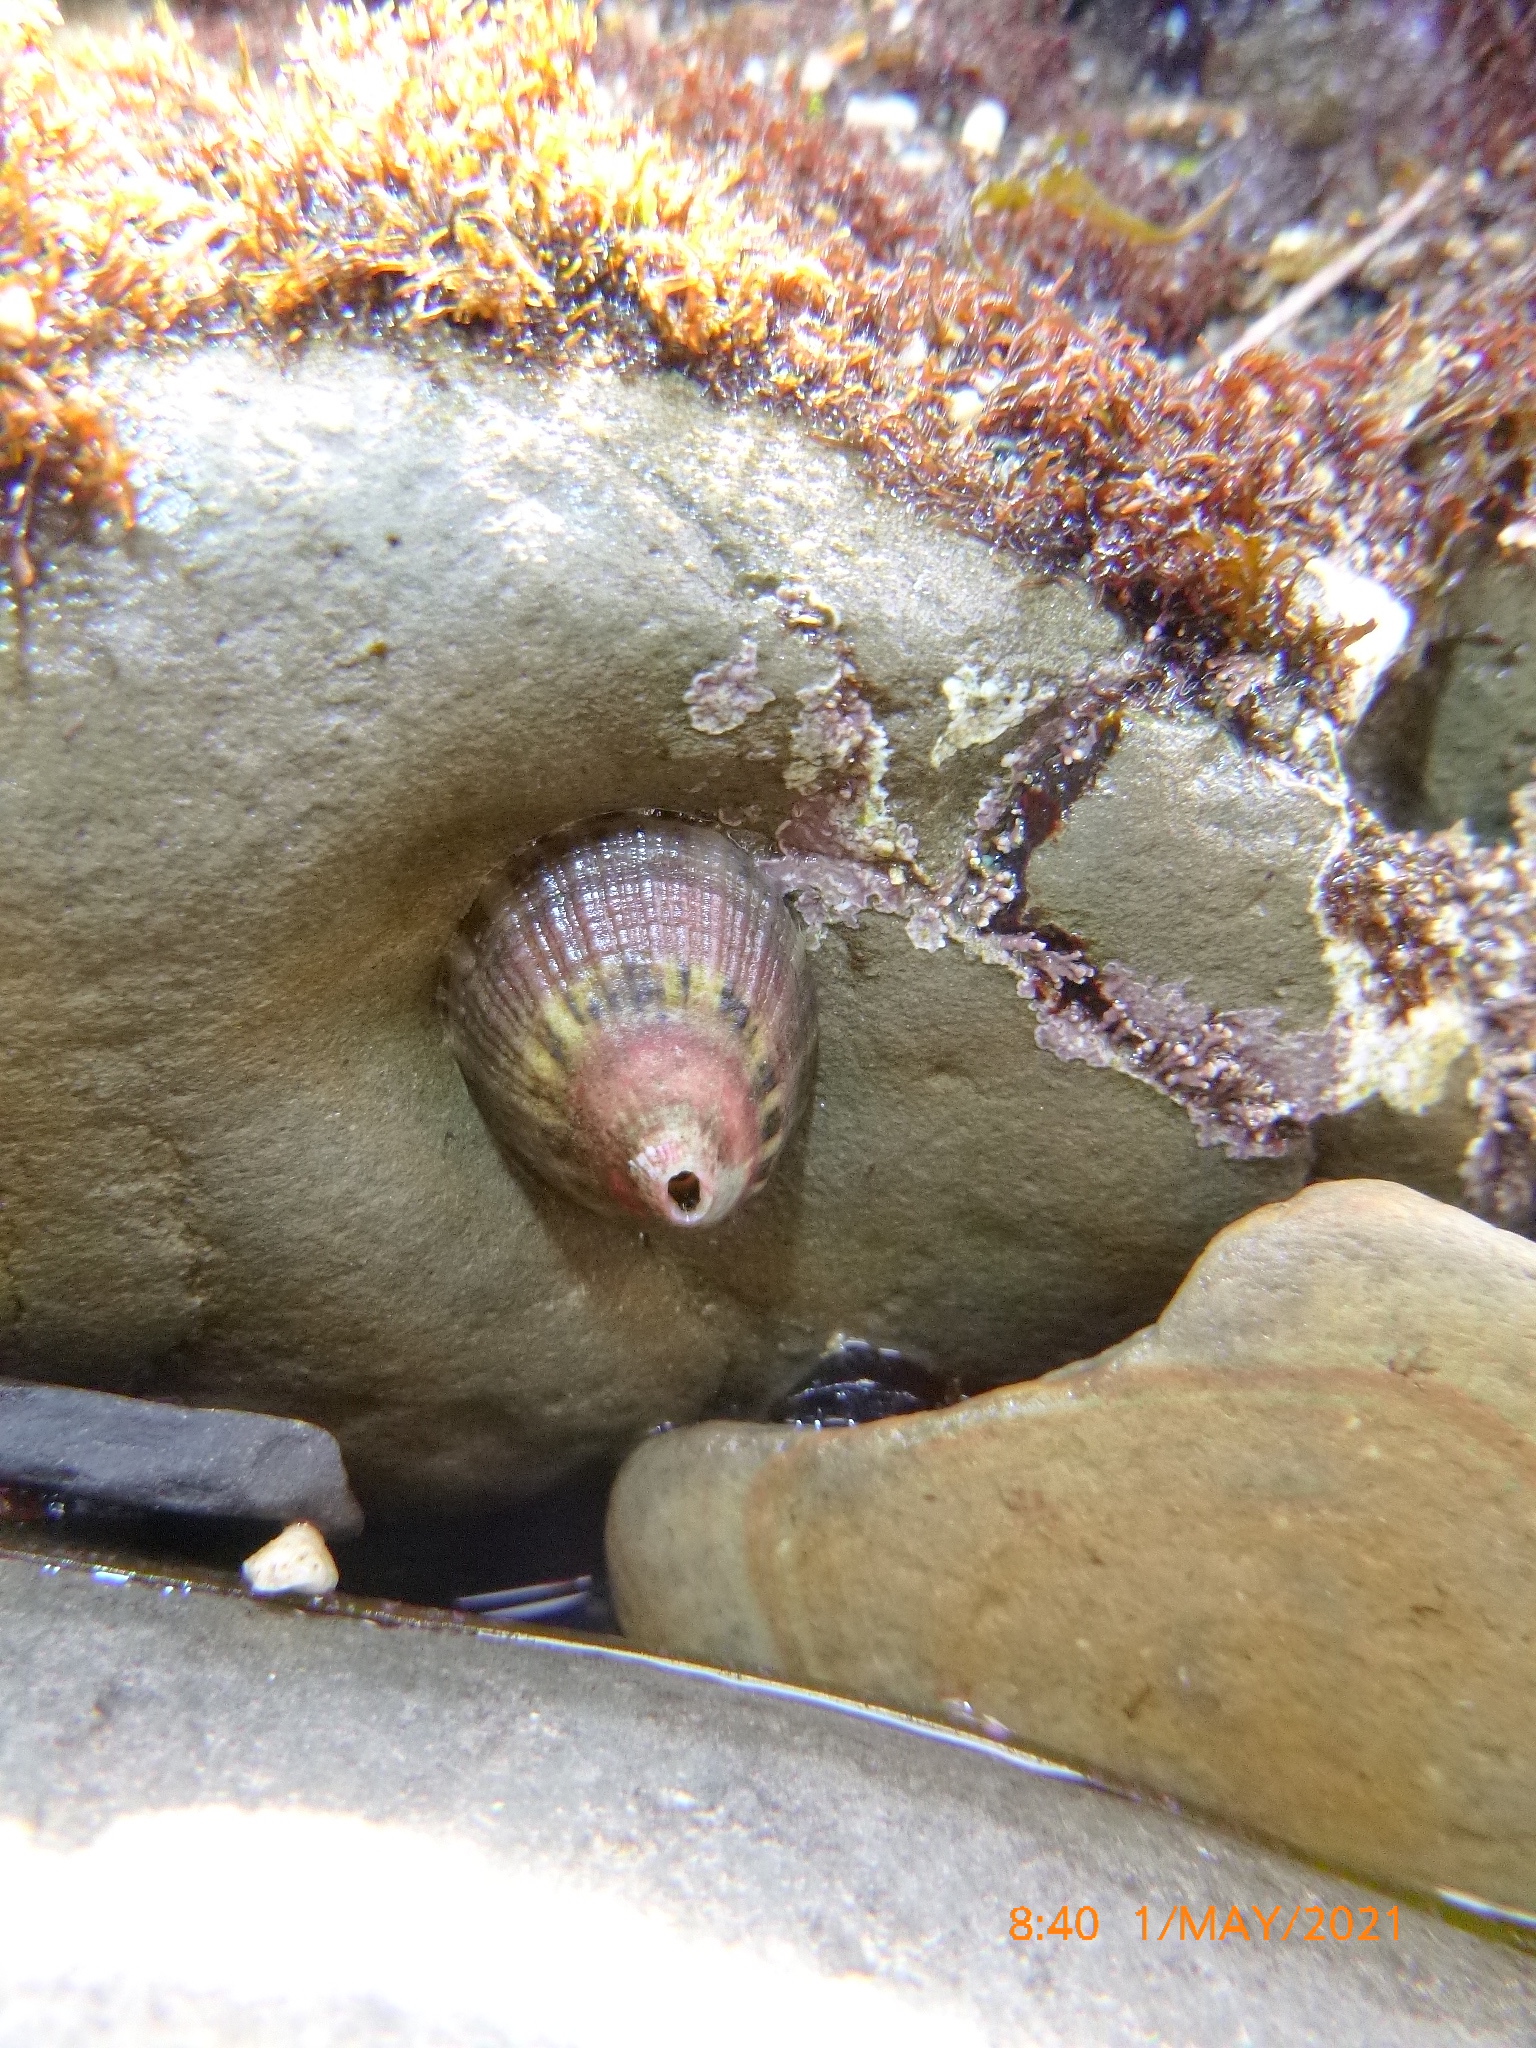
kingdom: Animalia
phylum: Mollusca
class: Gastropoda
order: Lepetellida
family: Fissurellidae
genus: Fissurella
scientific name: Fissurella volcano
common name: Volcano keyhole limpet
